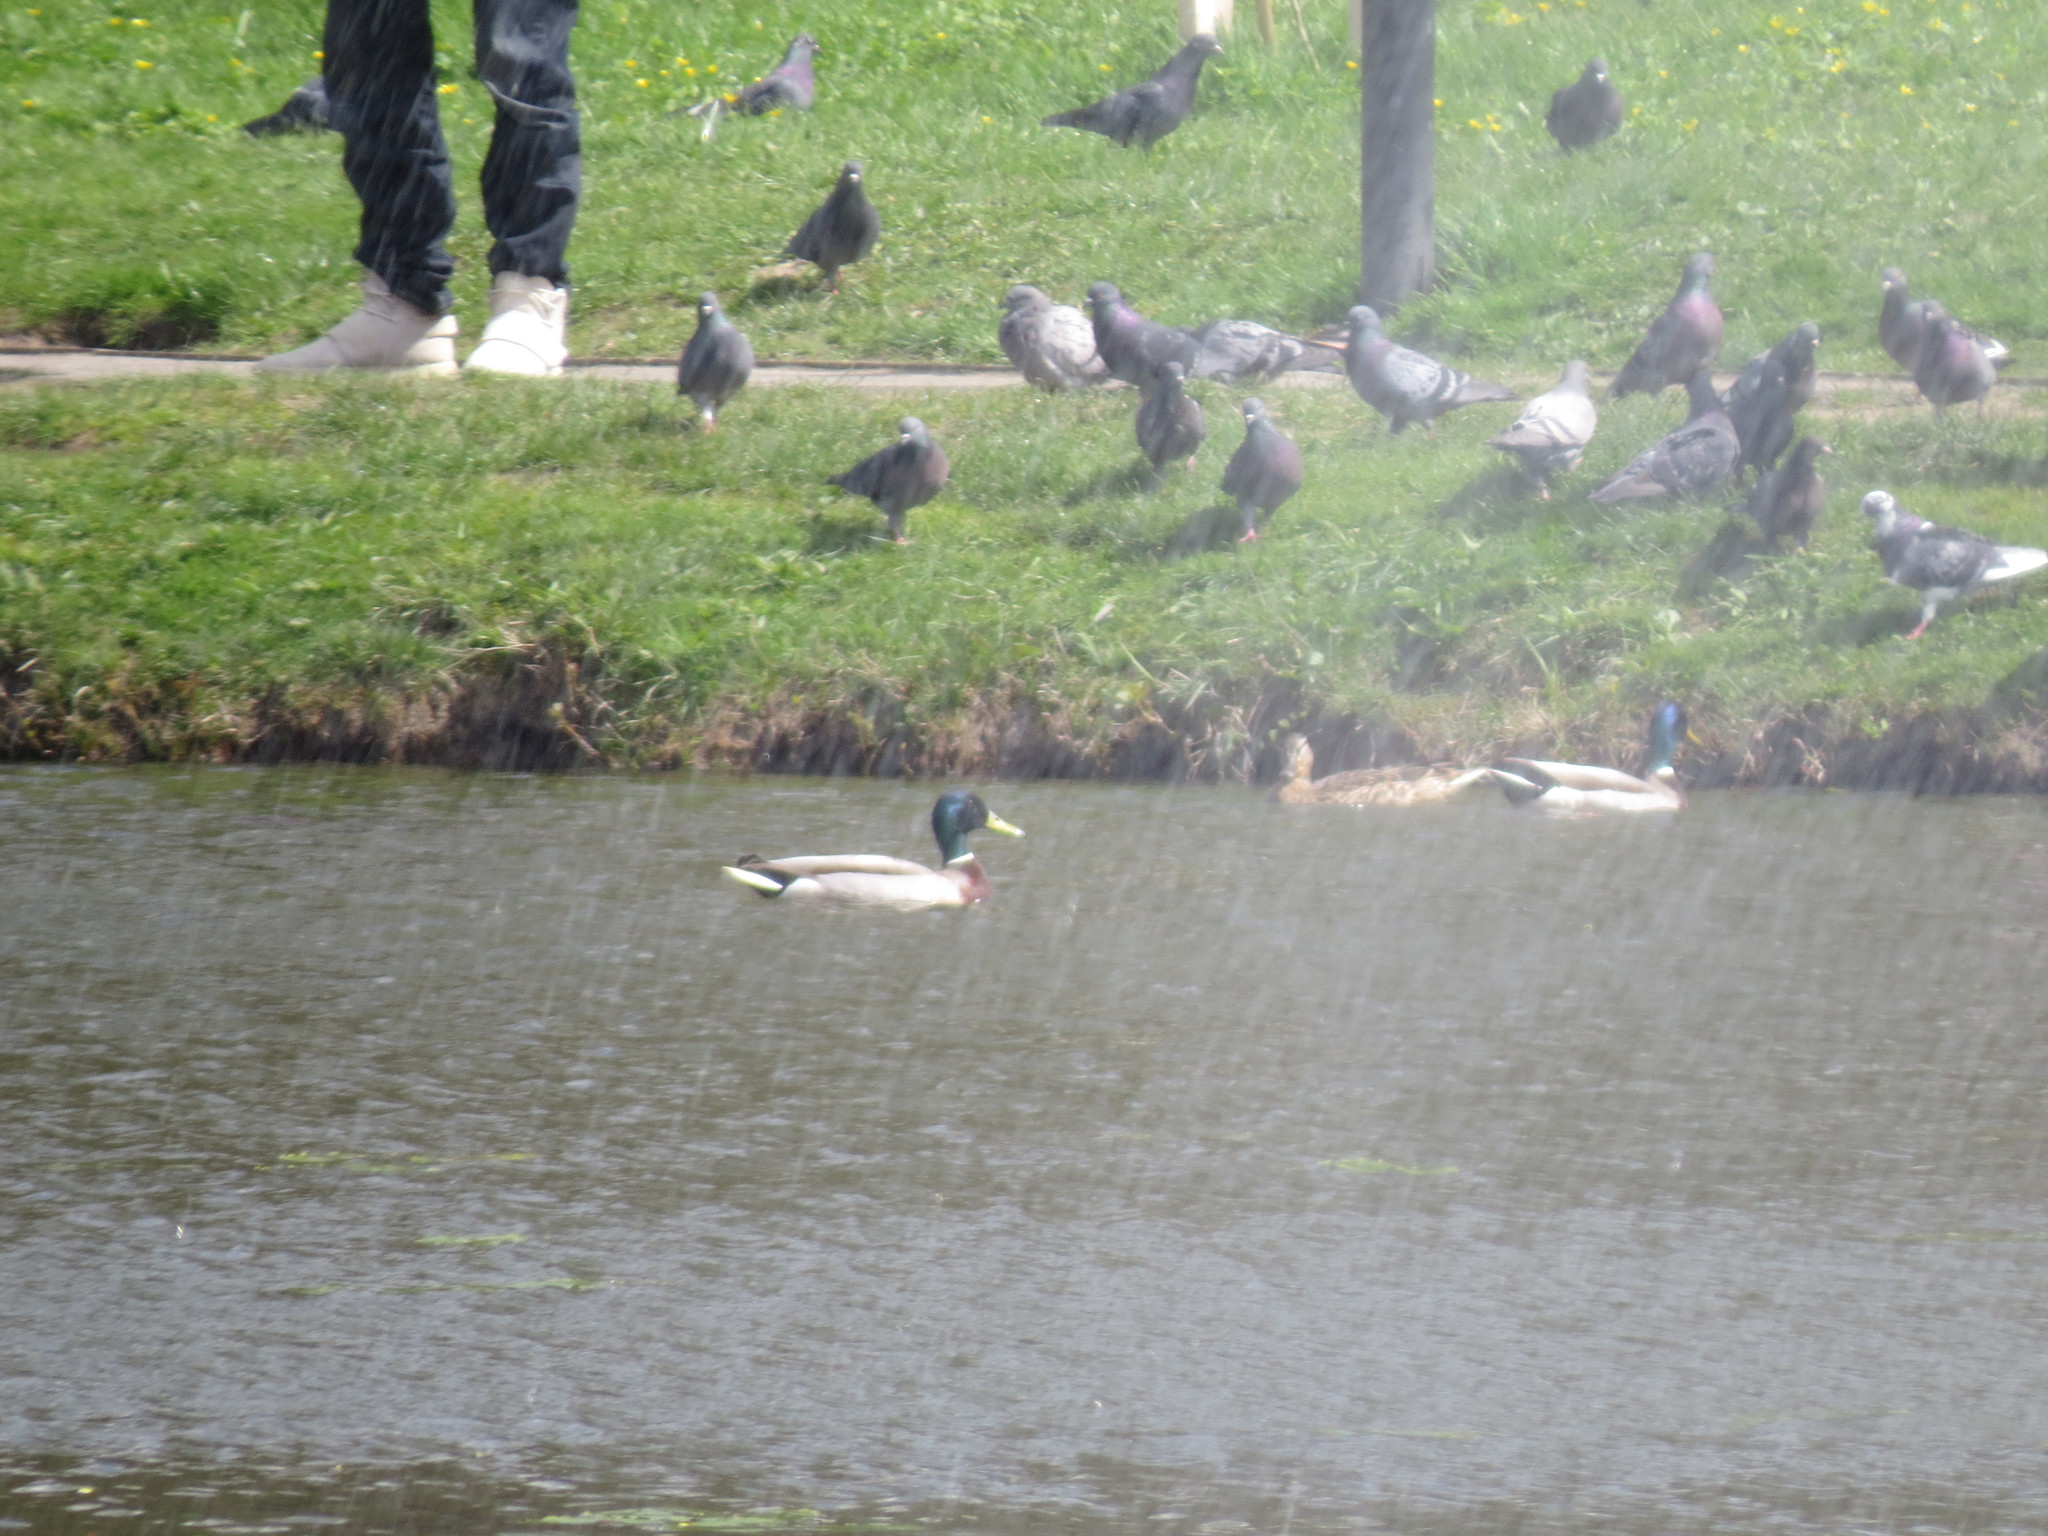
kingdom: Animalia
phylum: Chordata
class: Aves
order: Anseriformes
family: Anatidae
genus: Anas
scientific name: Anas platyrhynchos
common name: Mallard
